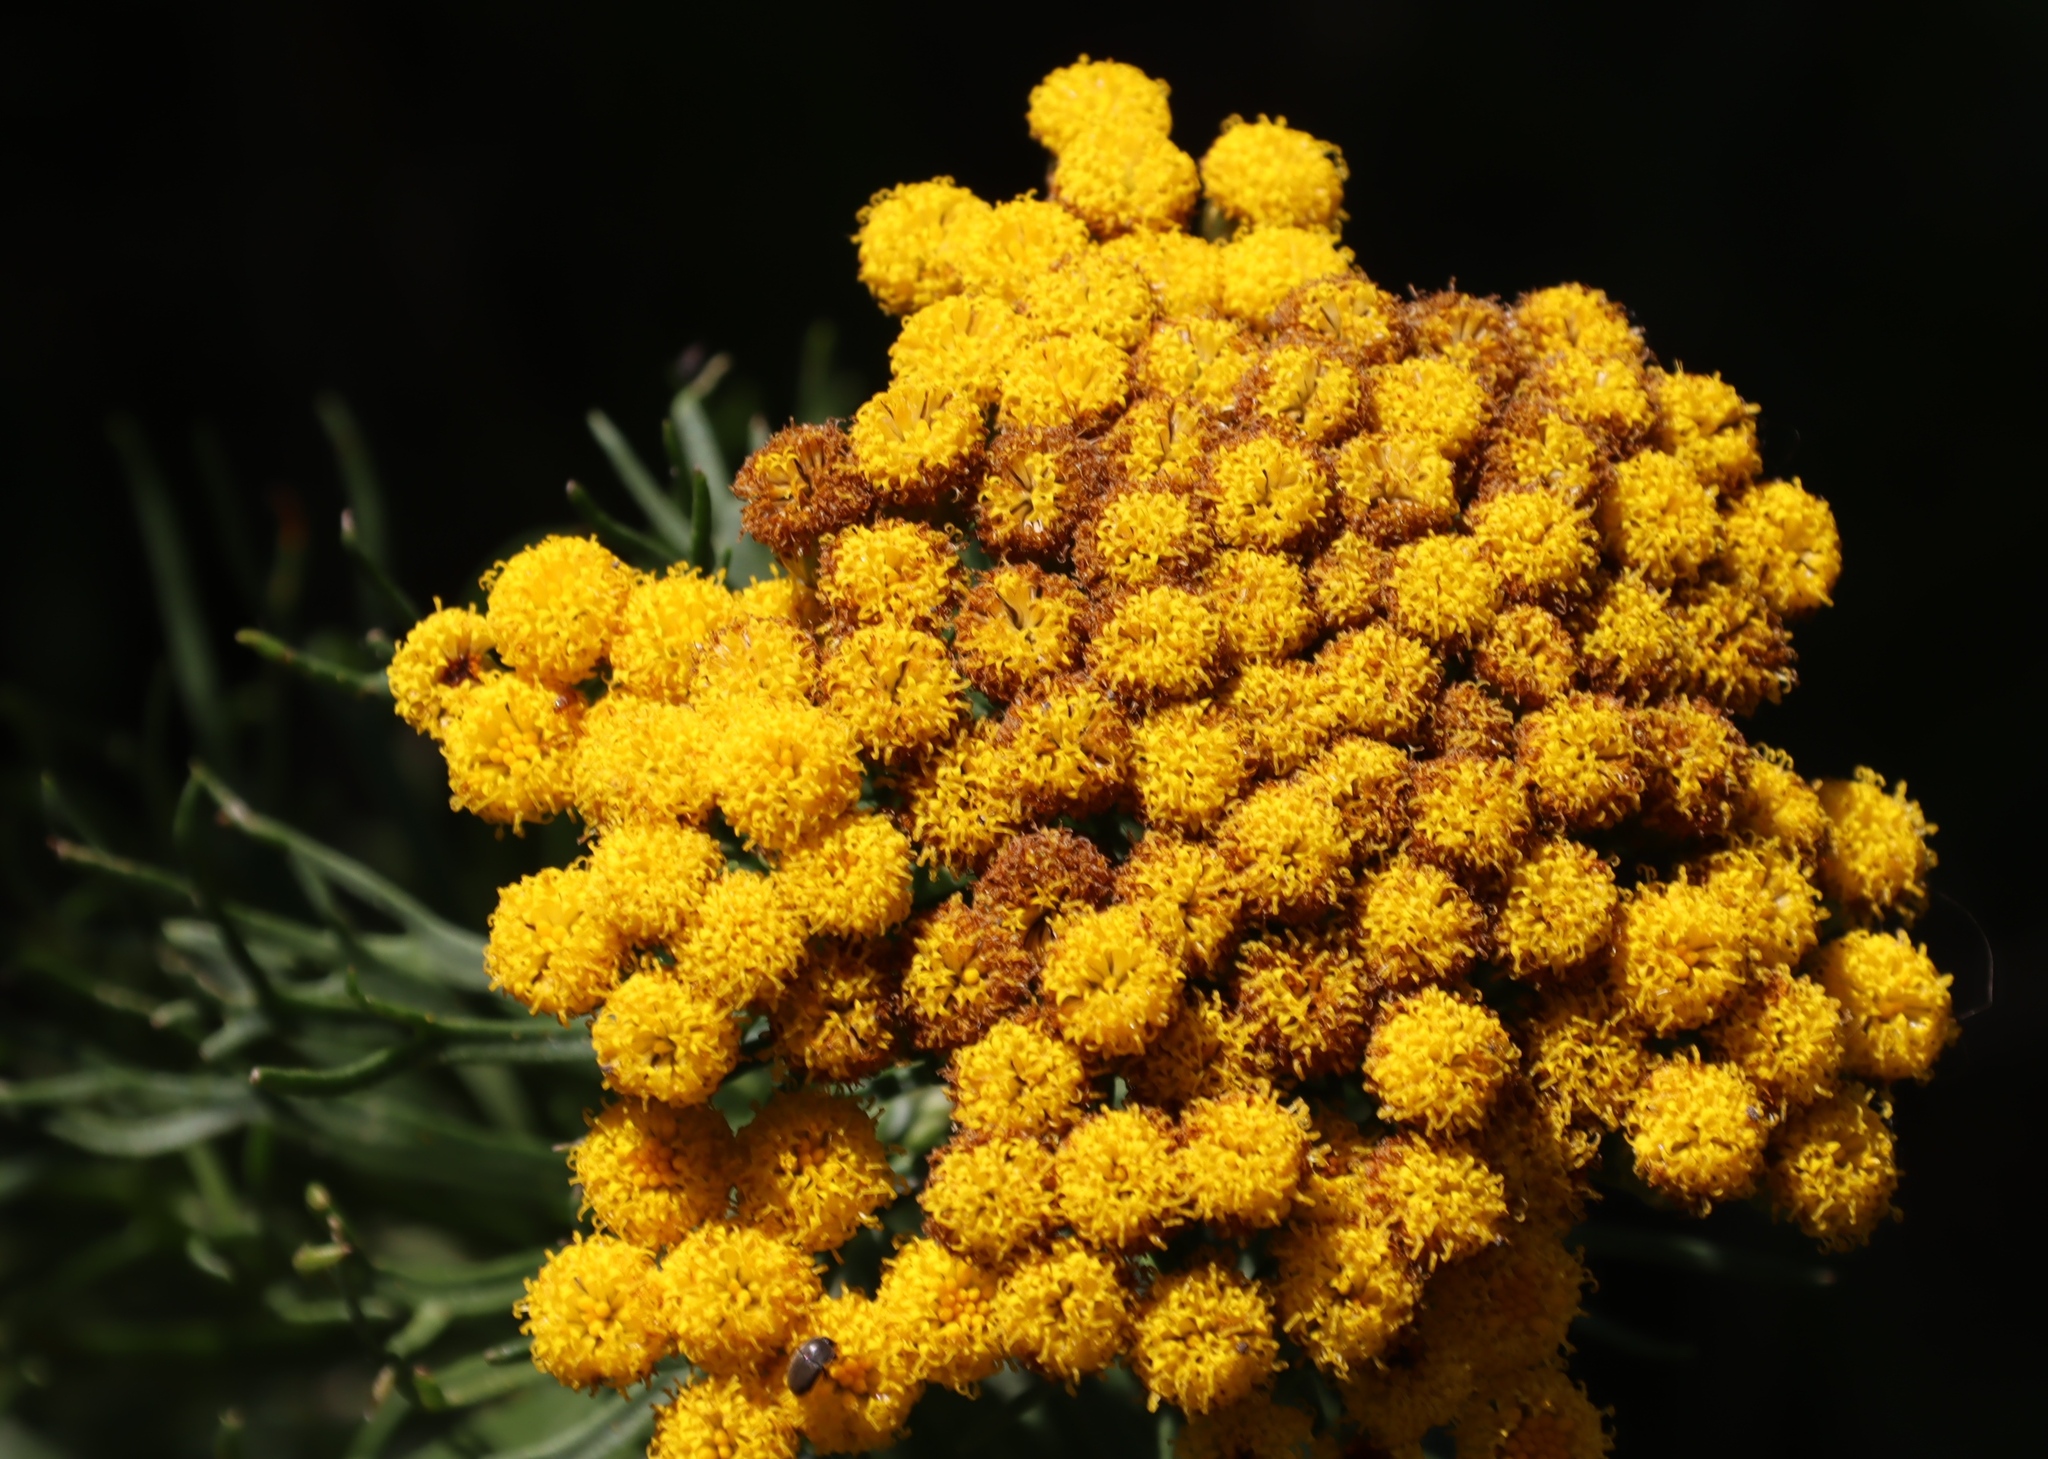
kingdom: Plantae
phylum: Tracheophyta
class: Magnoliopsida
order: Asterales
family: Asteraceae
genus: Athanasia
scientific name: Athanasia crithmifolia
